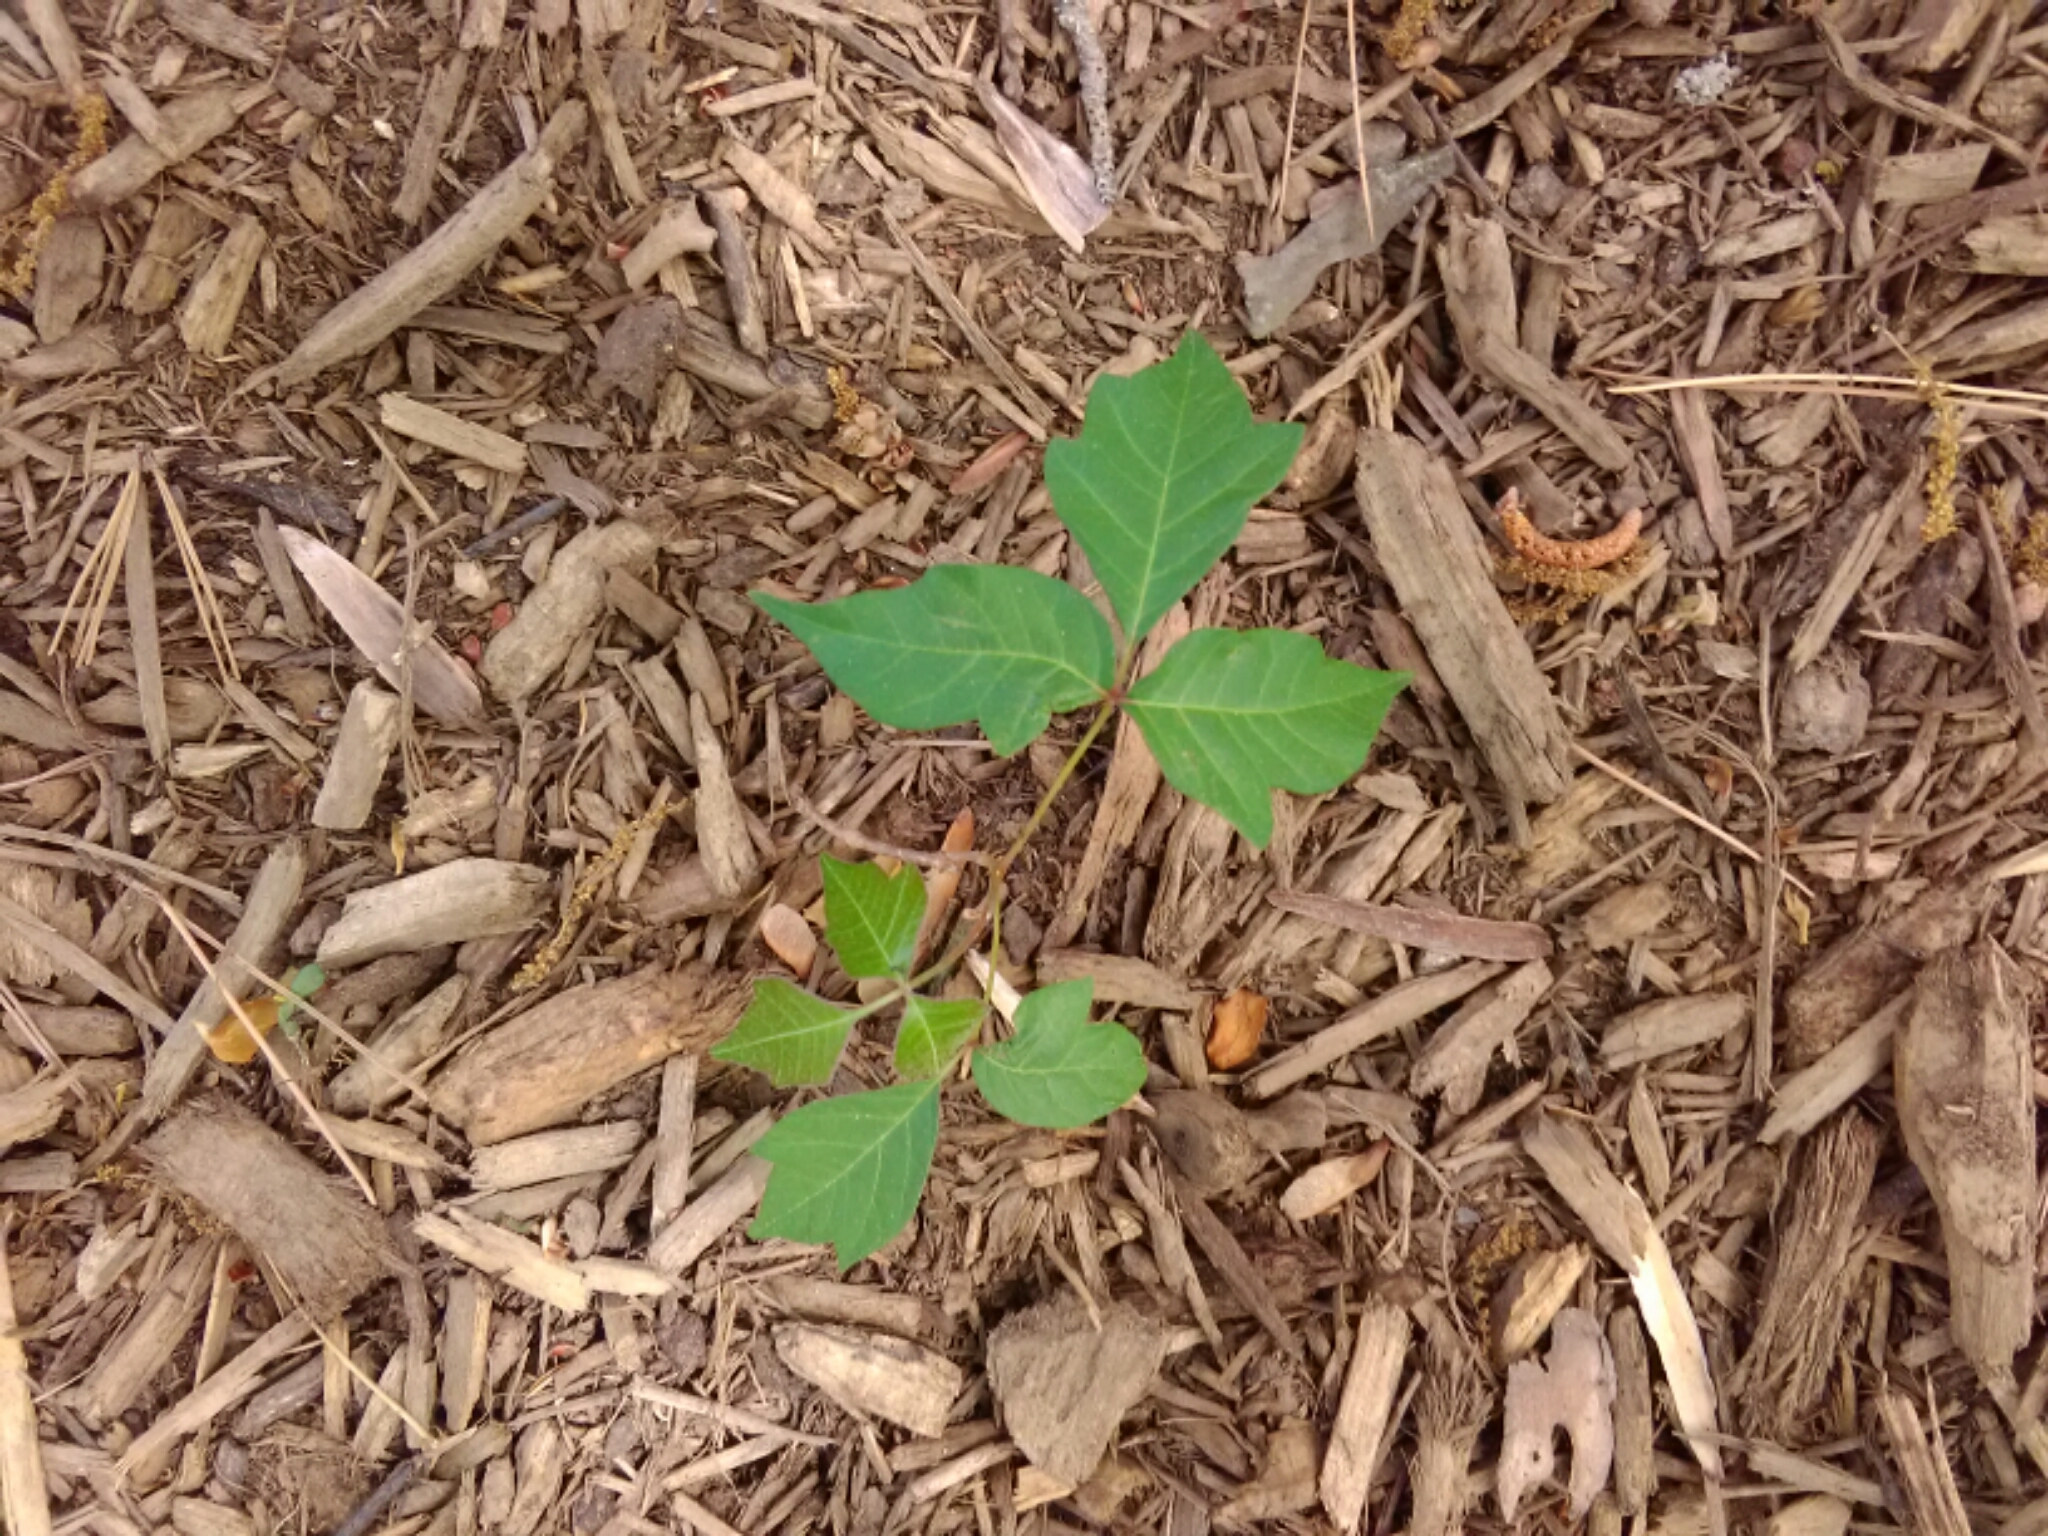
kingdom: Plantae
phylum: Tracheophyta
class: Magnoliopsida
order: Sapindales
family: Anacardiaceae
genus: Toxicodendron
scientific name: Toxicodendron radicans
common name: Poison ivy
